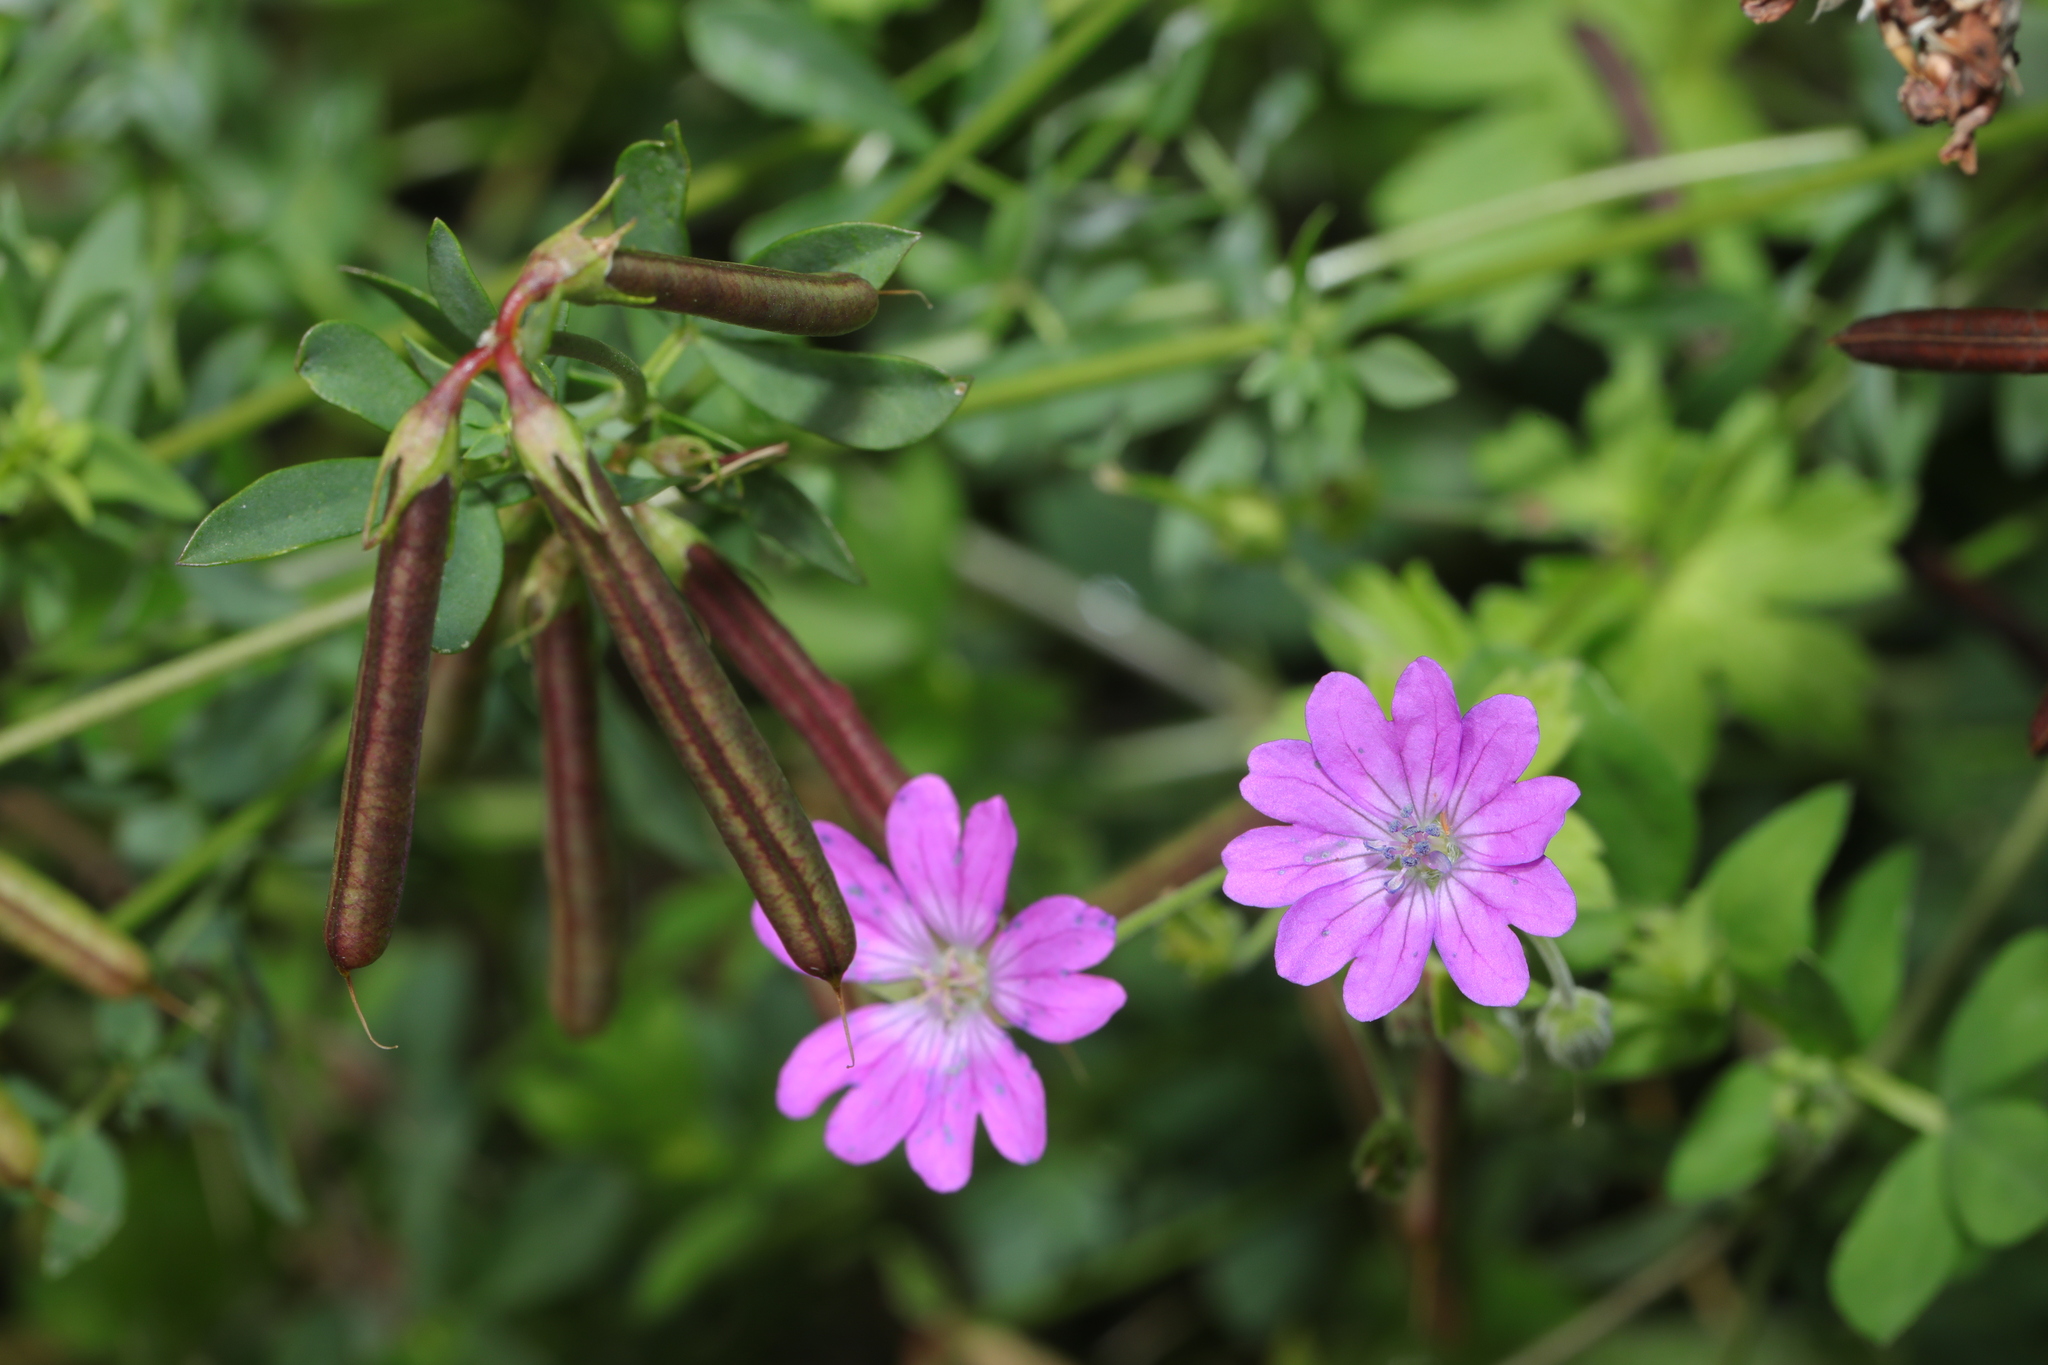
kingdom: Plantae
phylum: Tracheophyta
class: Magnoliopsida
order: Geraniales
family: Geraniaceae
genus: Geranium
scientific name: Geranium pyrenaicum
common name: Hedgerow crane's-bill
